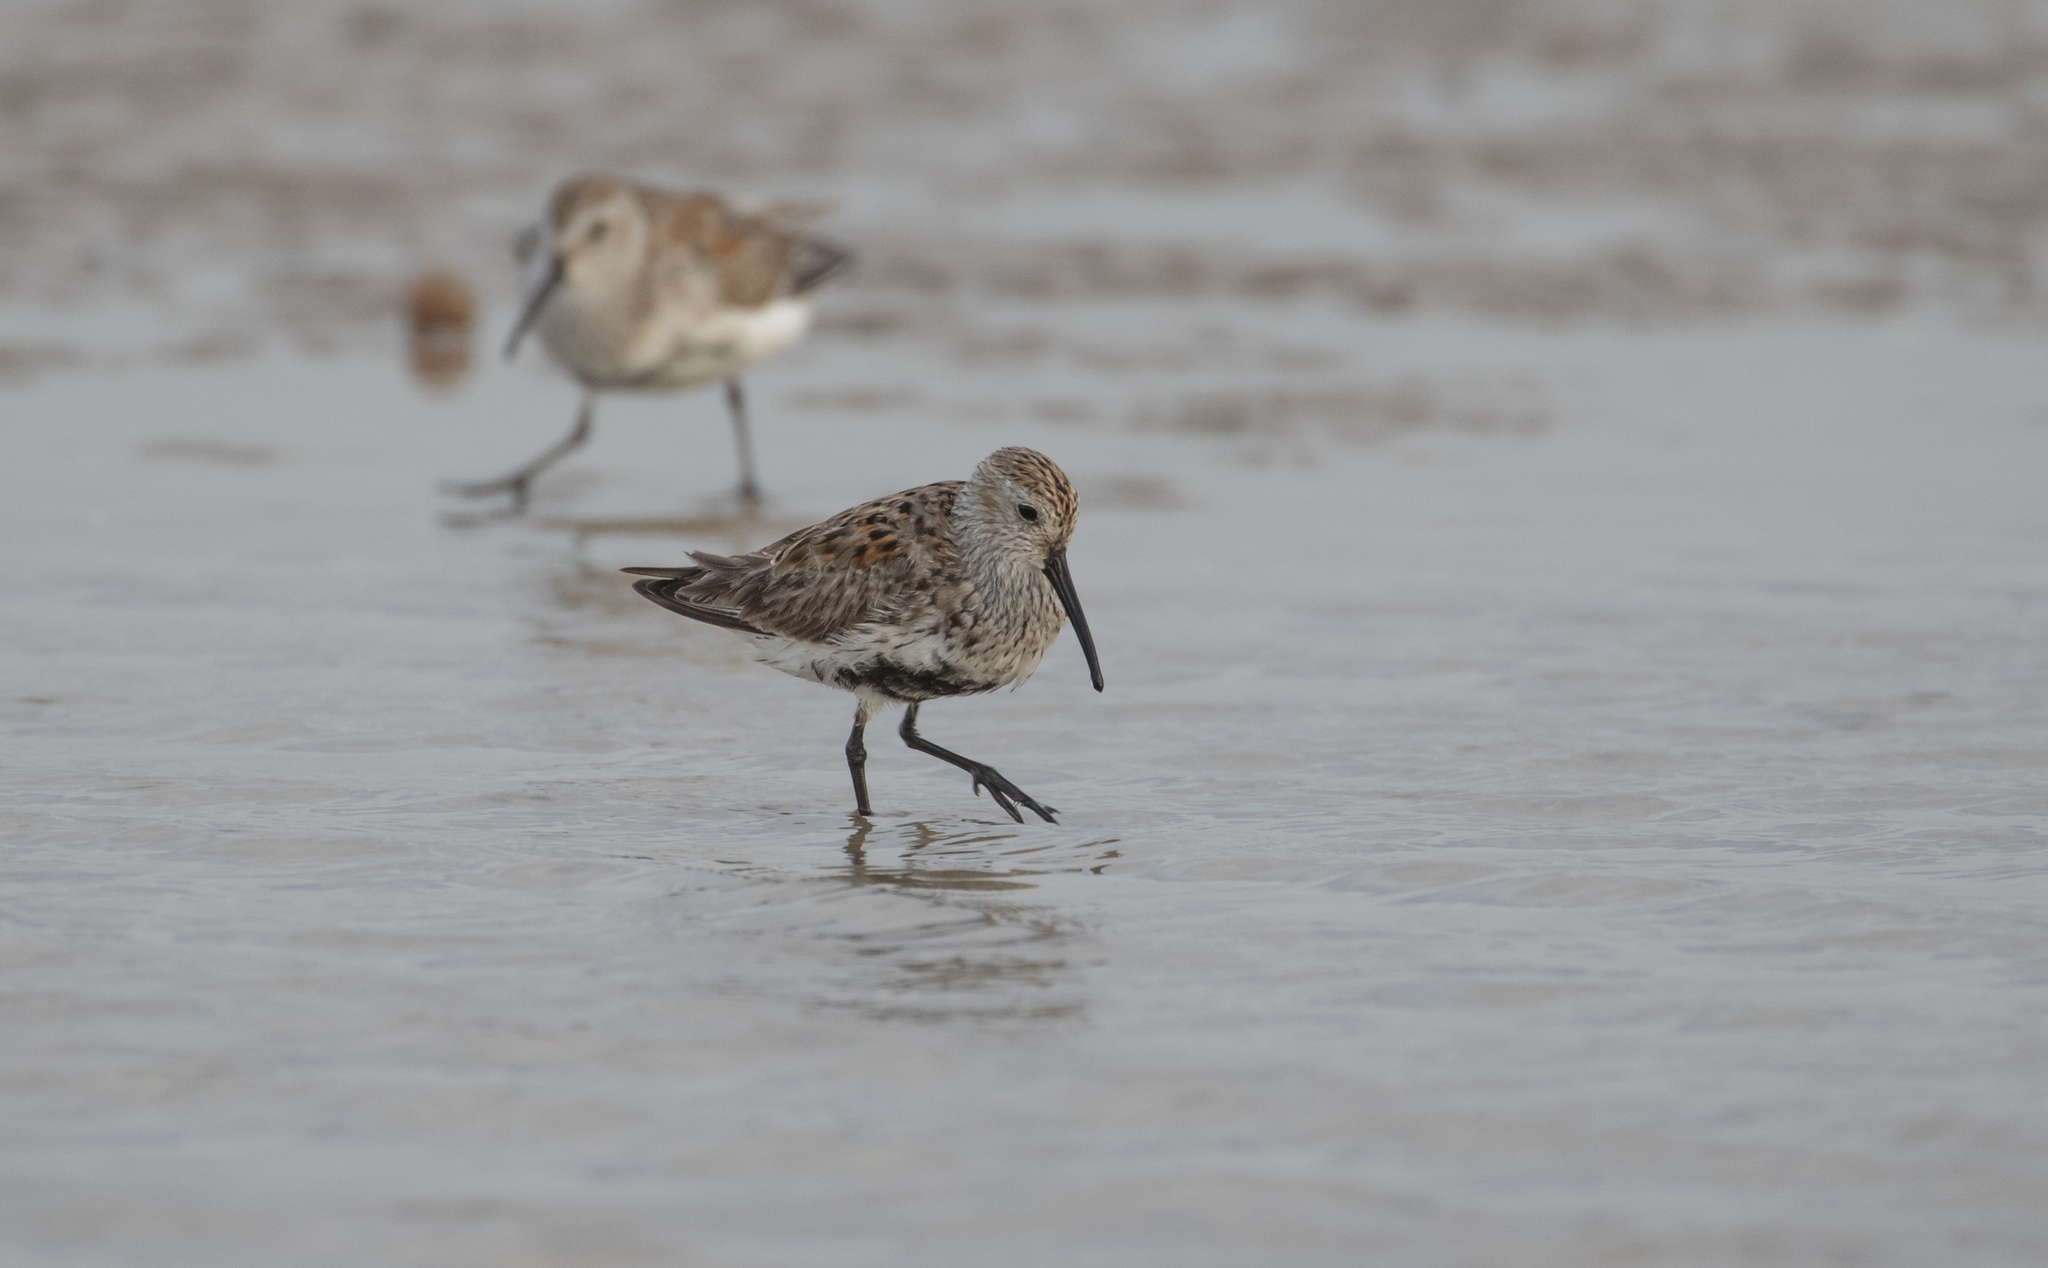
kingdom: Animalia
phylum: Chordata
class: Aves
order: Charadriiformes
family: Scolopacidae
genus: Calidris
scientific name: Calidris alpina
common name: Dunlin
